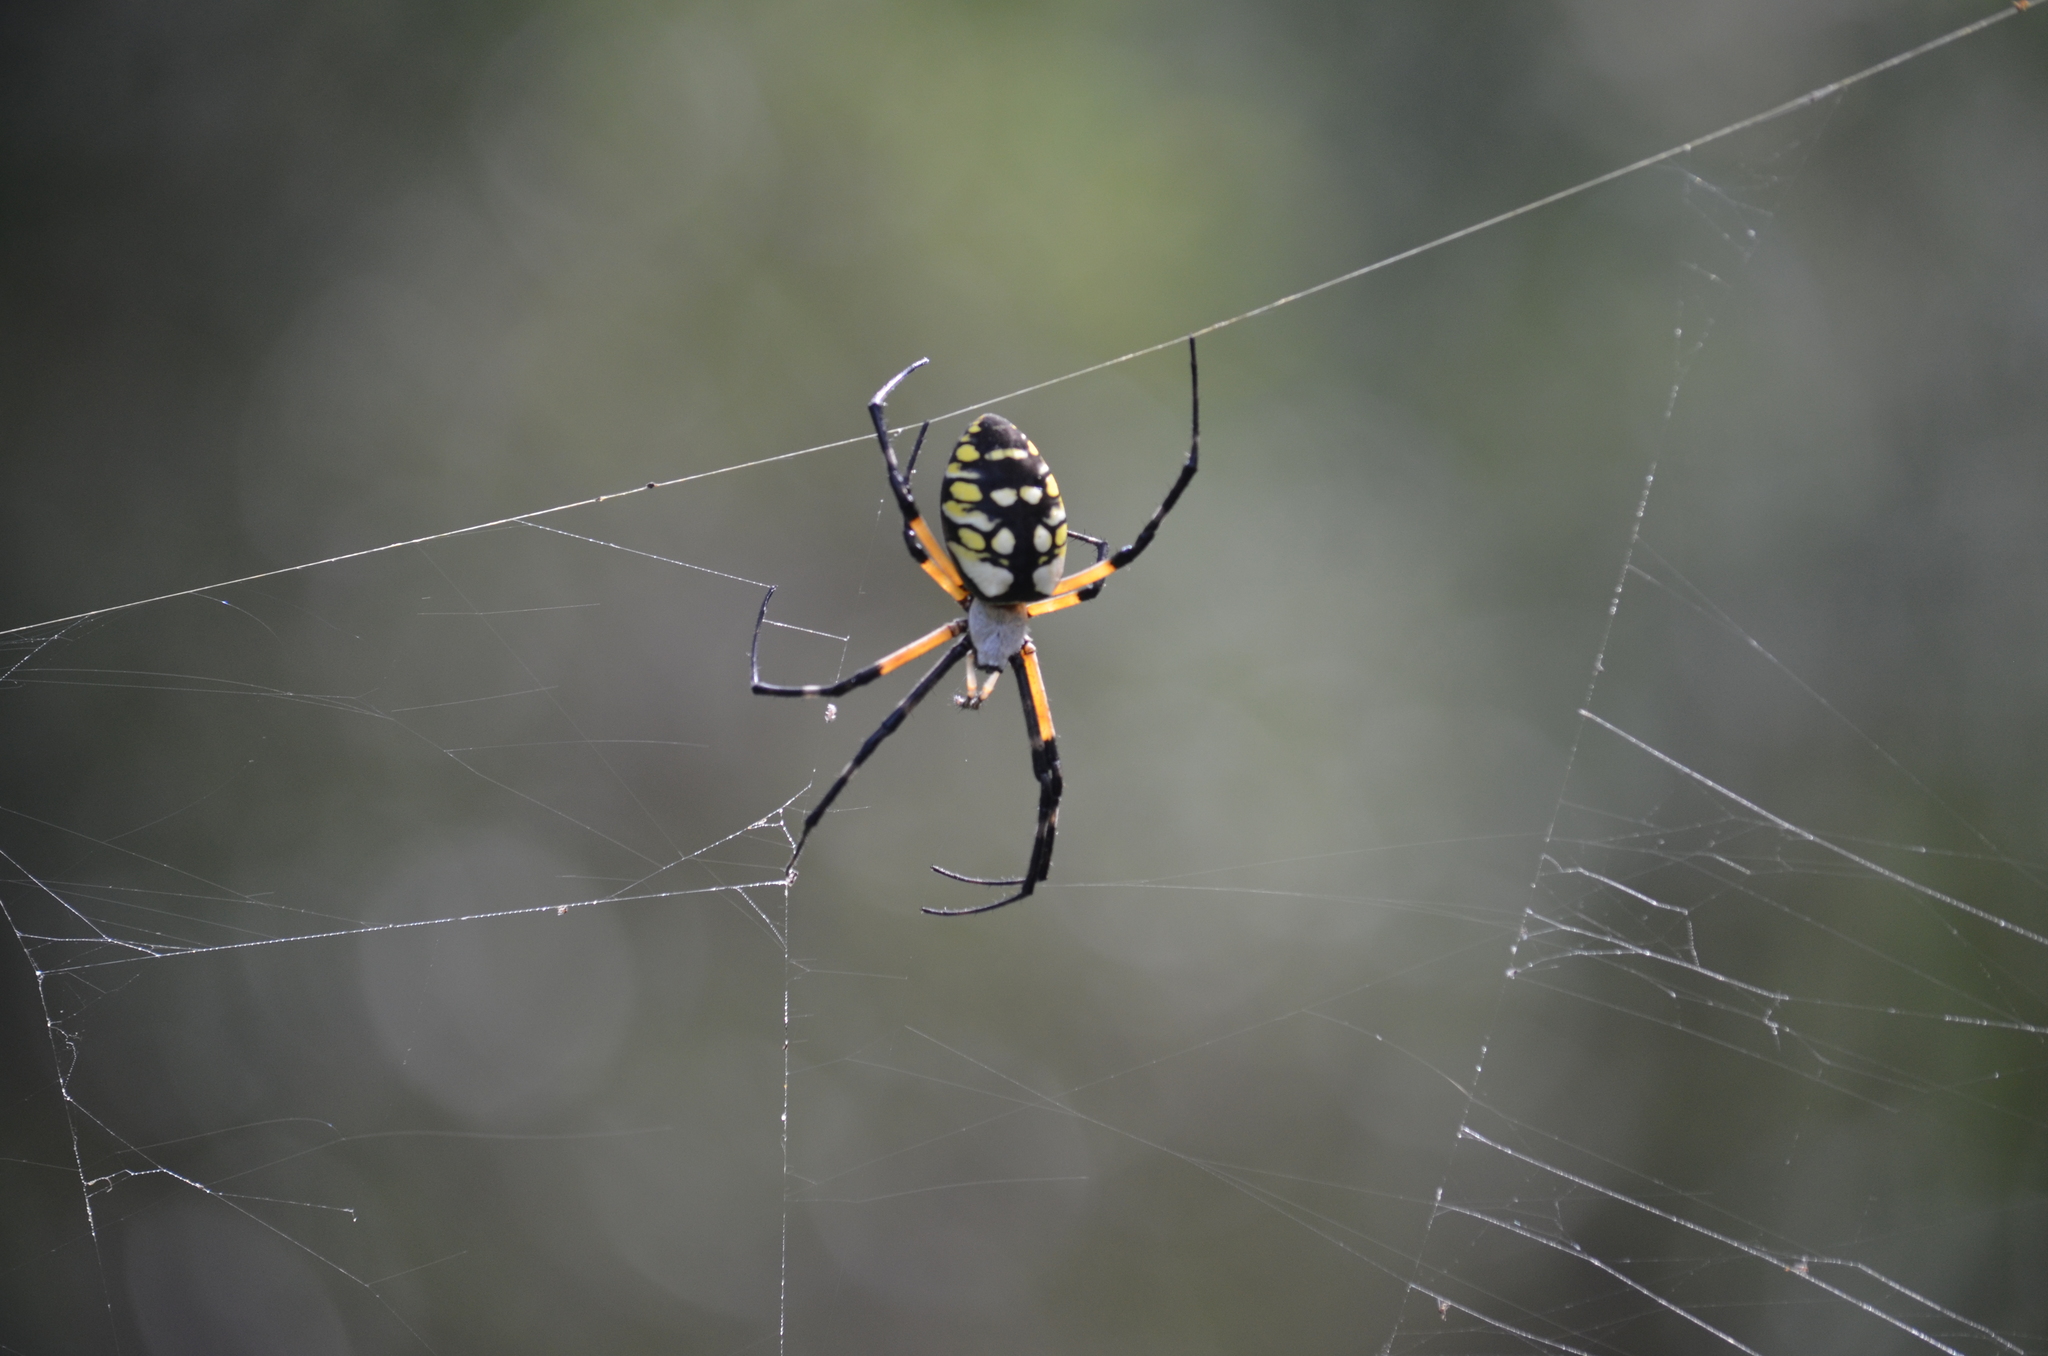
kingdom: Animalia
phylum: Arthropoda
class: Arachnida
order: Araneae
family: Araneidae
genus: Argiope
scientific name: Argiope aurantia
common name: Orb weavers
